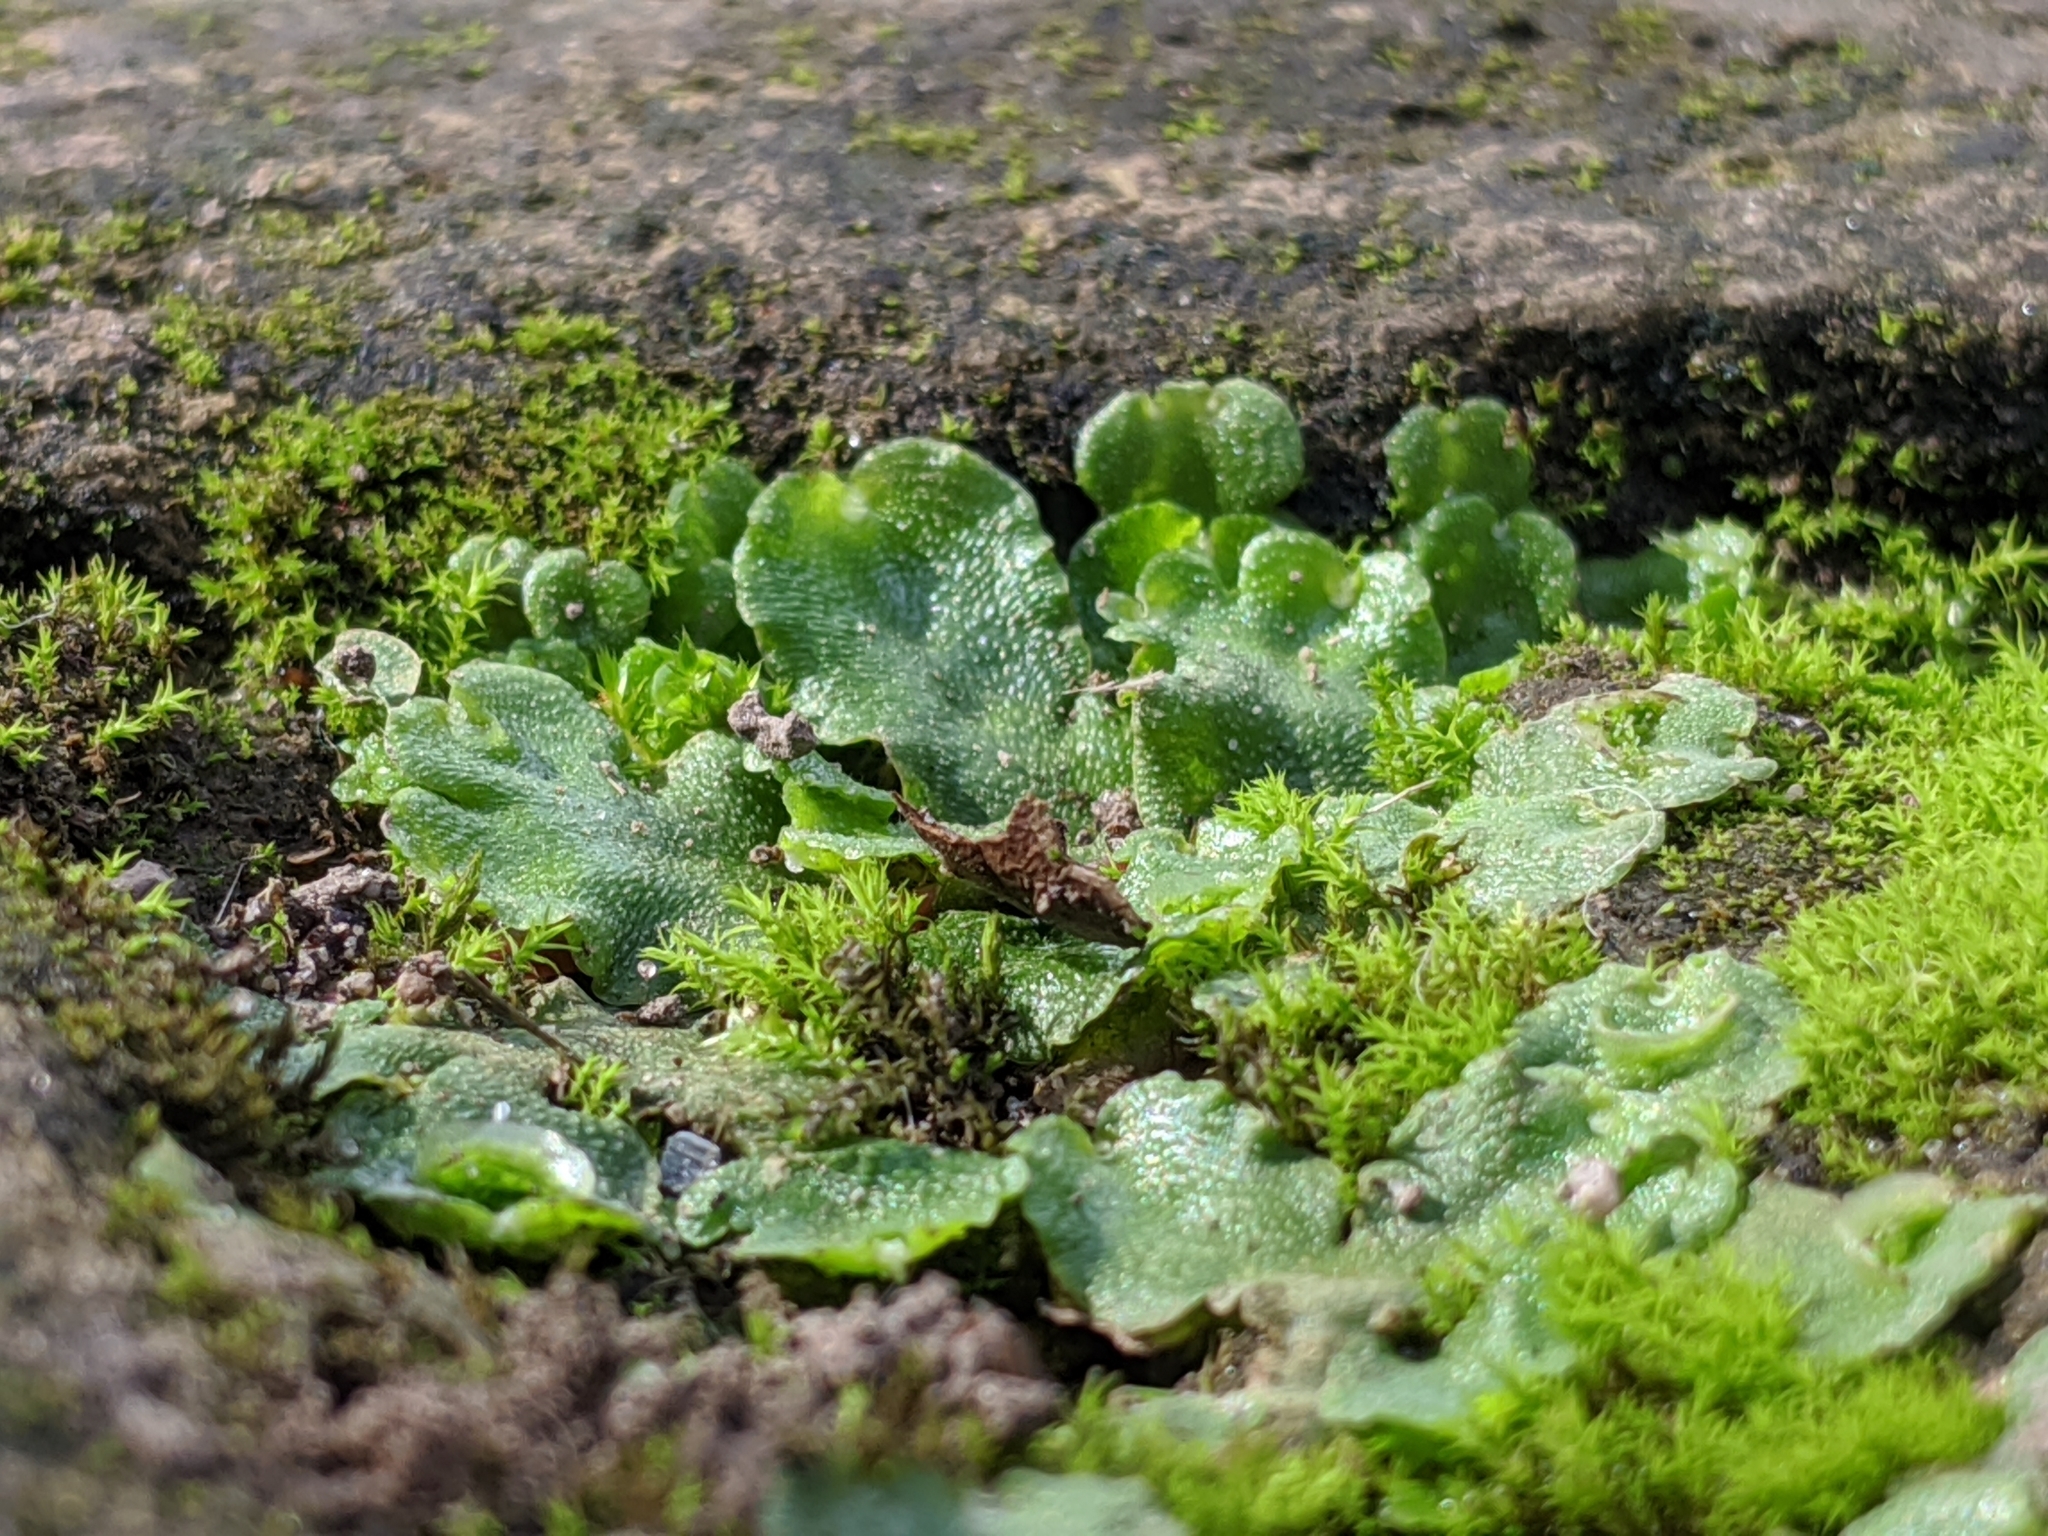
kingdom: Plantae
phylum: Marchantiophyta
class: Marchantiopsida
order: Lunulariales
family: Lunulariaceae
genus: Lunularia
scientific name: Lunularia cruciata
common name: Crescent-cup liverwort
